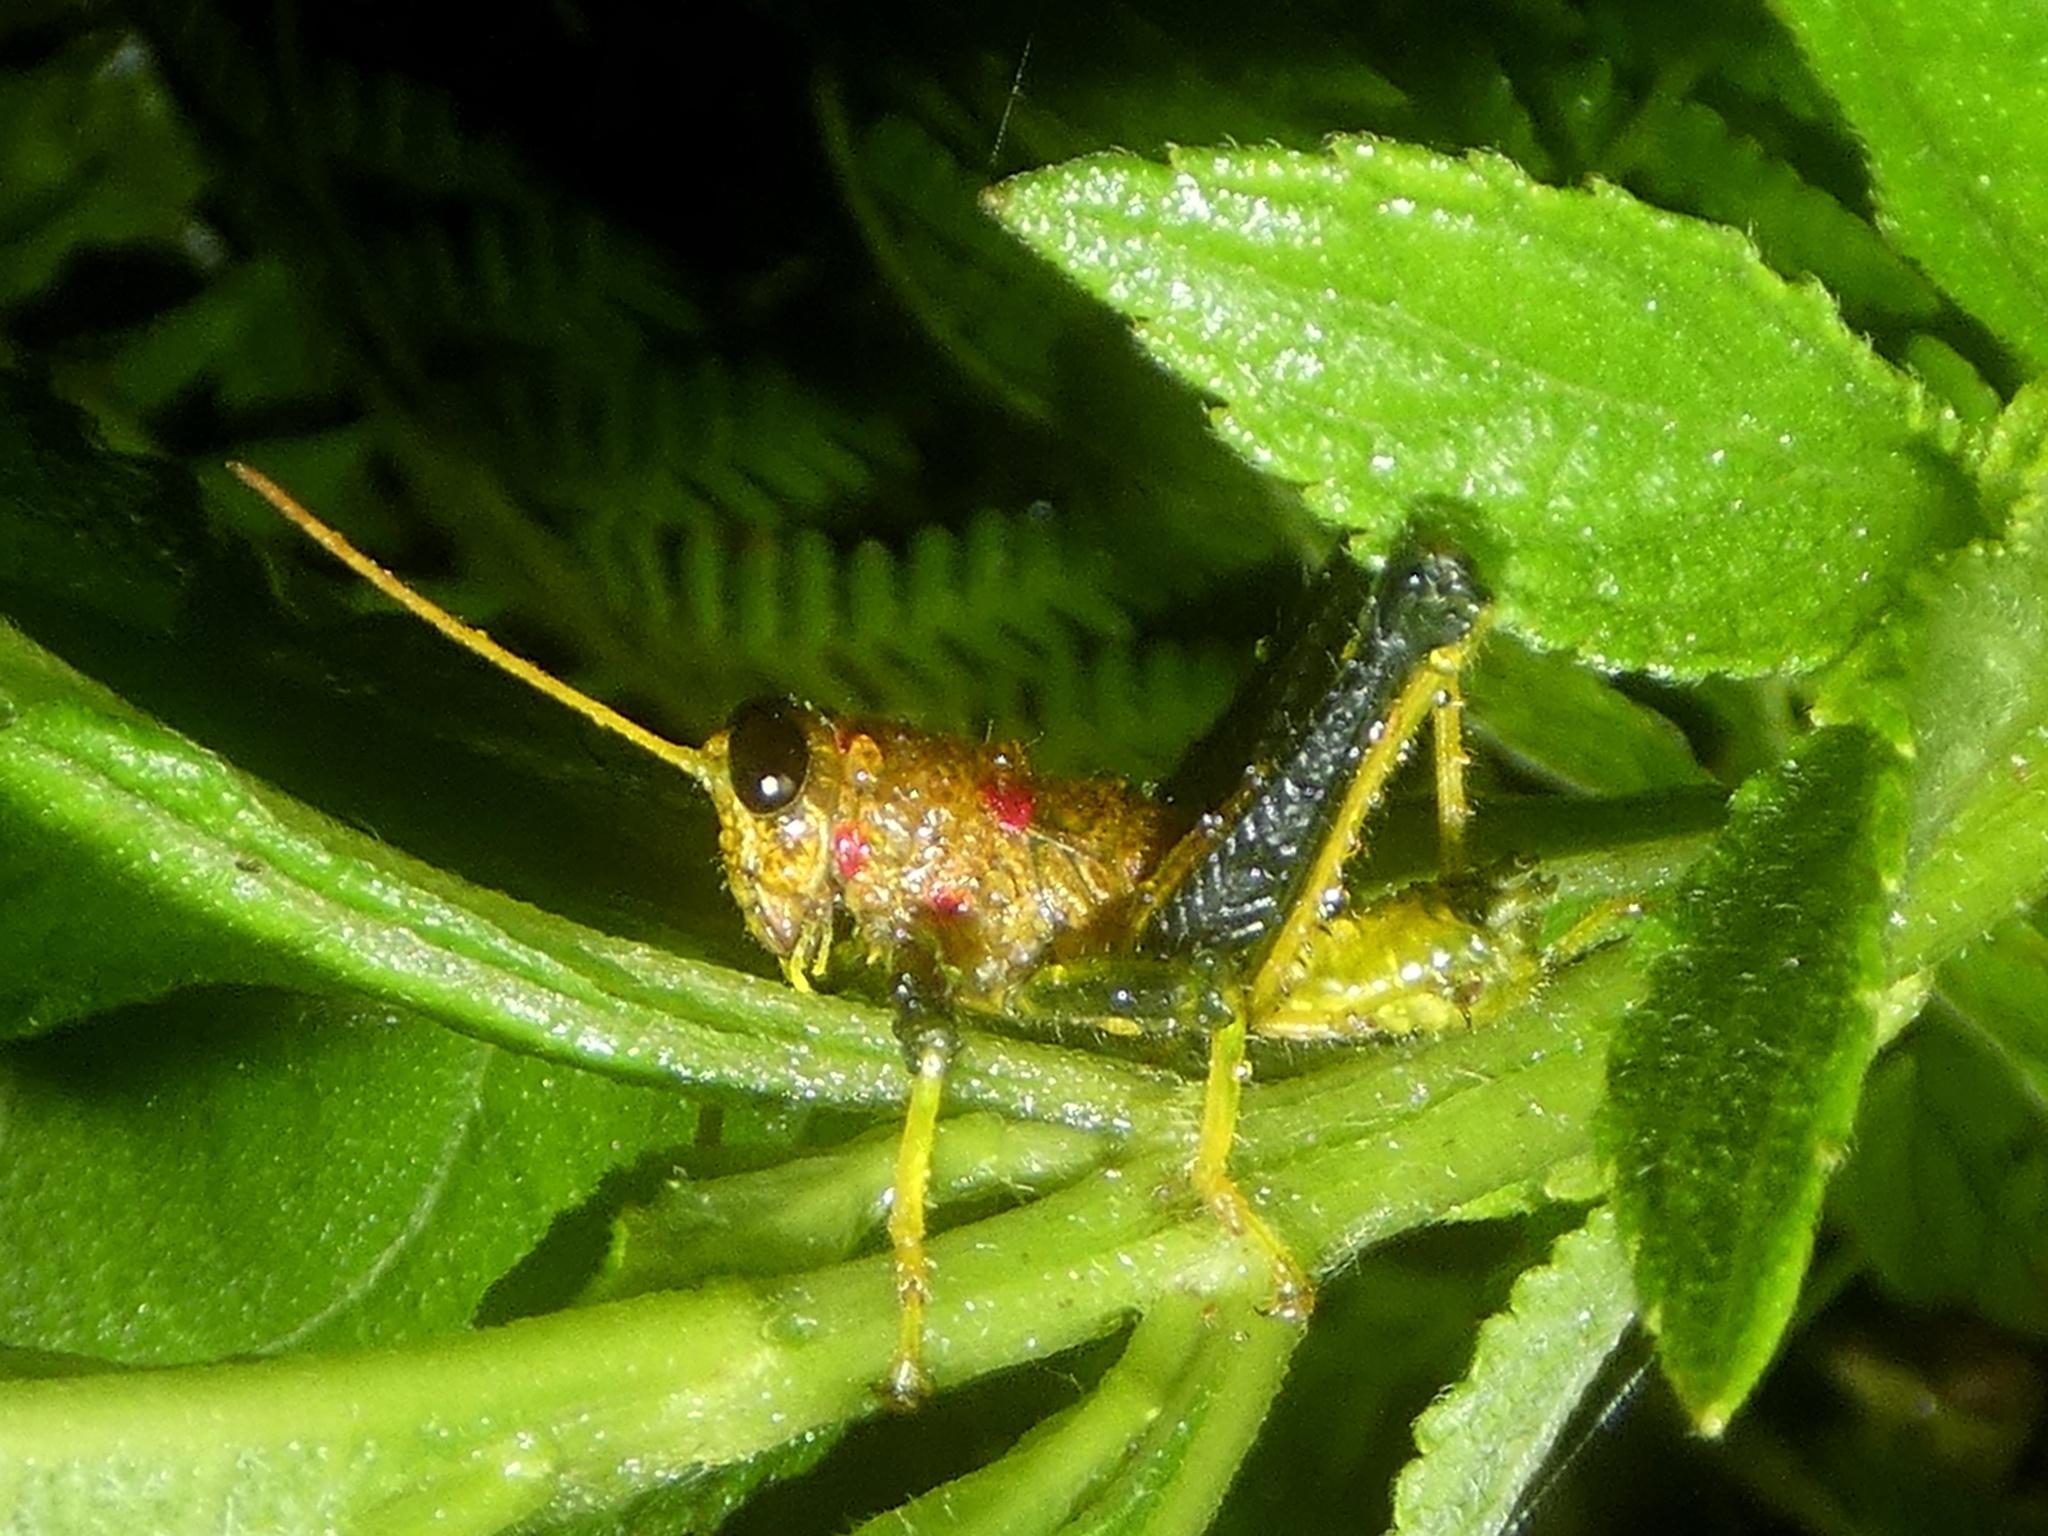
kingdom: Animalia
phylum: Arthropoda
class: Insecta
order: Orthoptera
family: Acrididae
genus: Rhachicreagra
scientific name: Rhachicreagra dierythra
